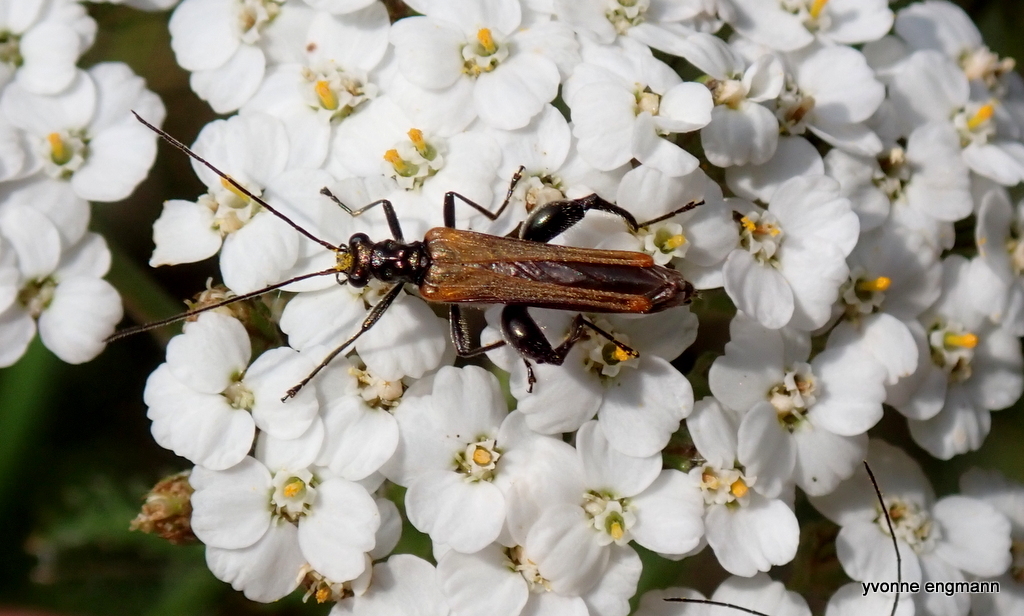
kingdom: Animalia
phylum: Arthropoda
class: Insecta
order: Coleoptera
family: Oedemeridae
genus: Oedemera
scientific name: Oedemera femorata
